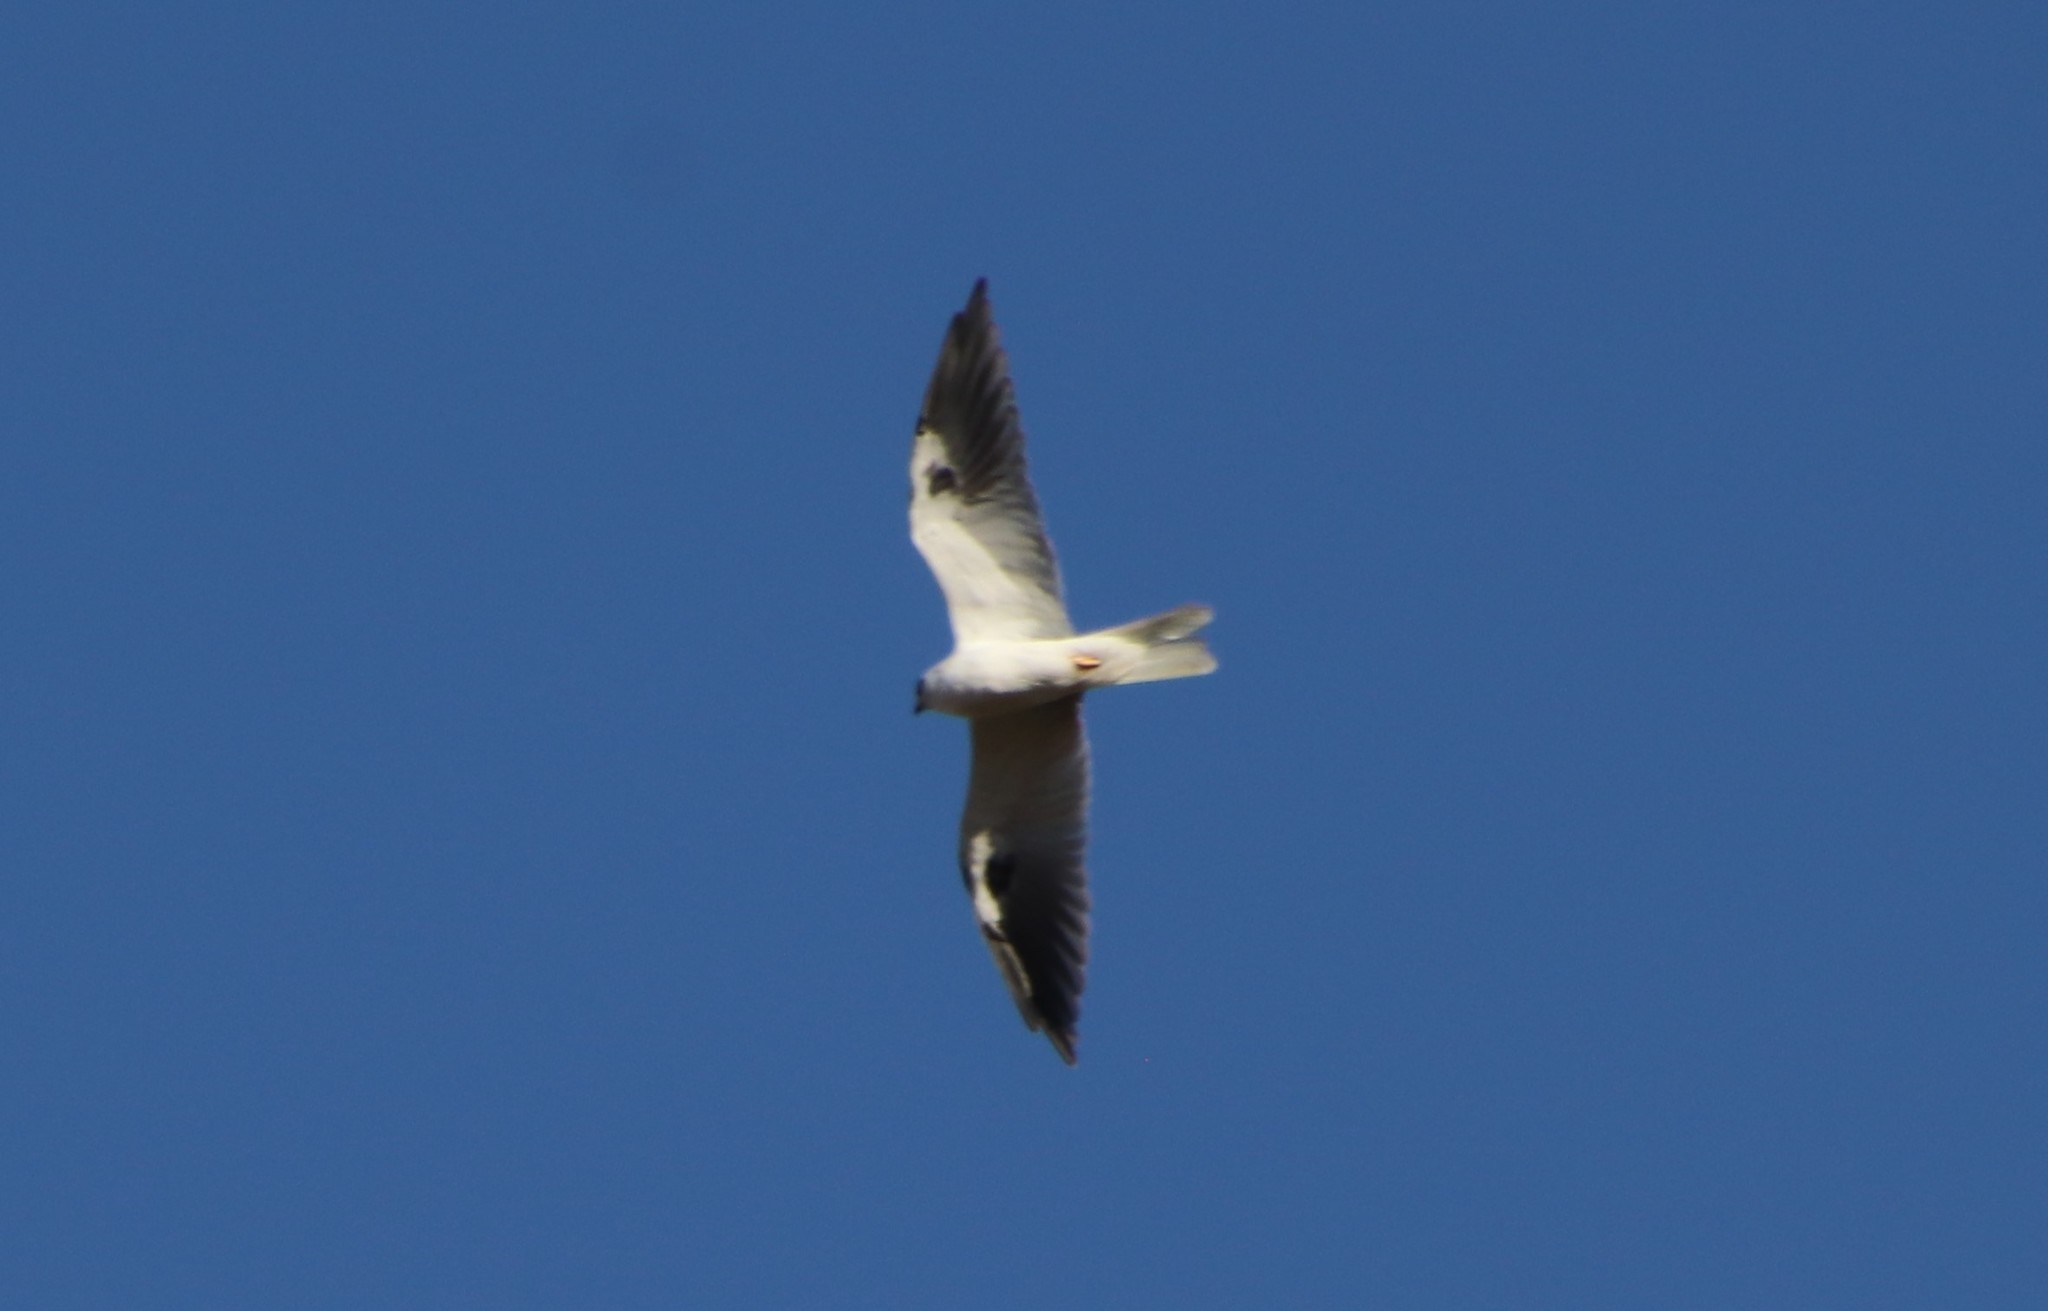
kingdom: Animalia
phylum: Chordata
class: Aves
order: Accipitriformes
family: Accipitridae
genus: Elanus
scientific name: Elanus leucurus
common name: White-tailed kite
